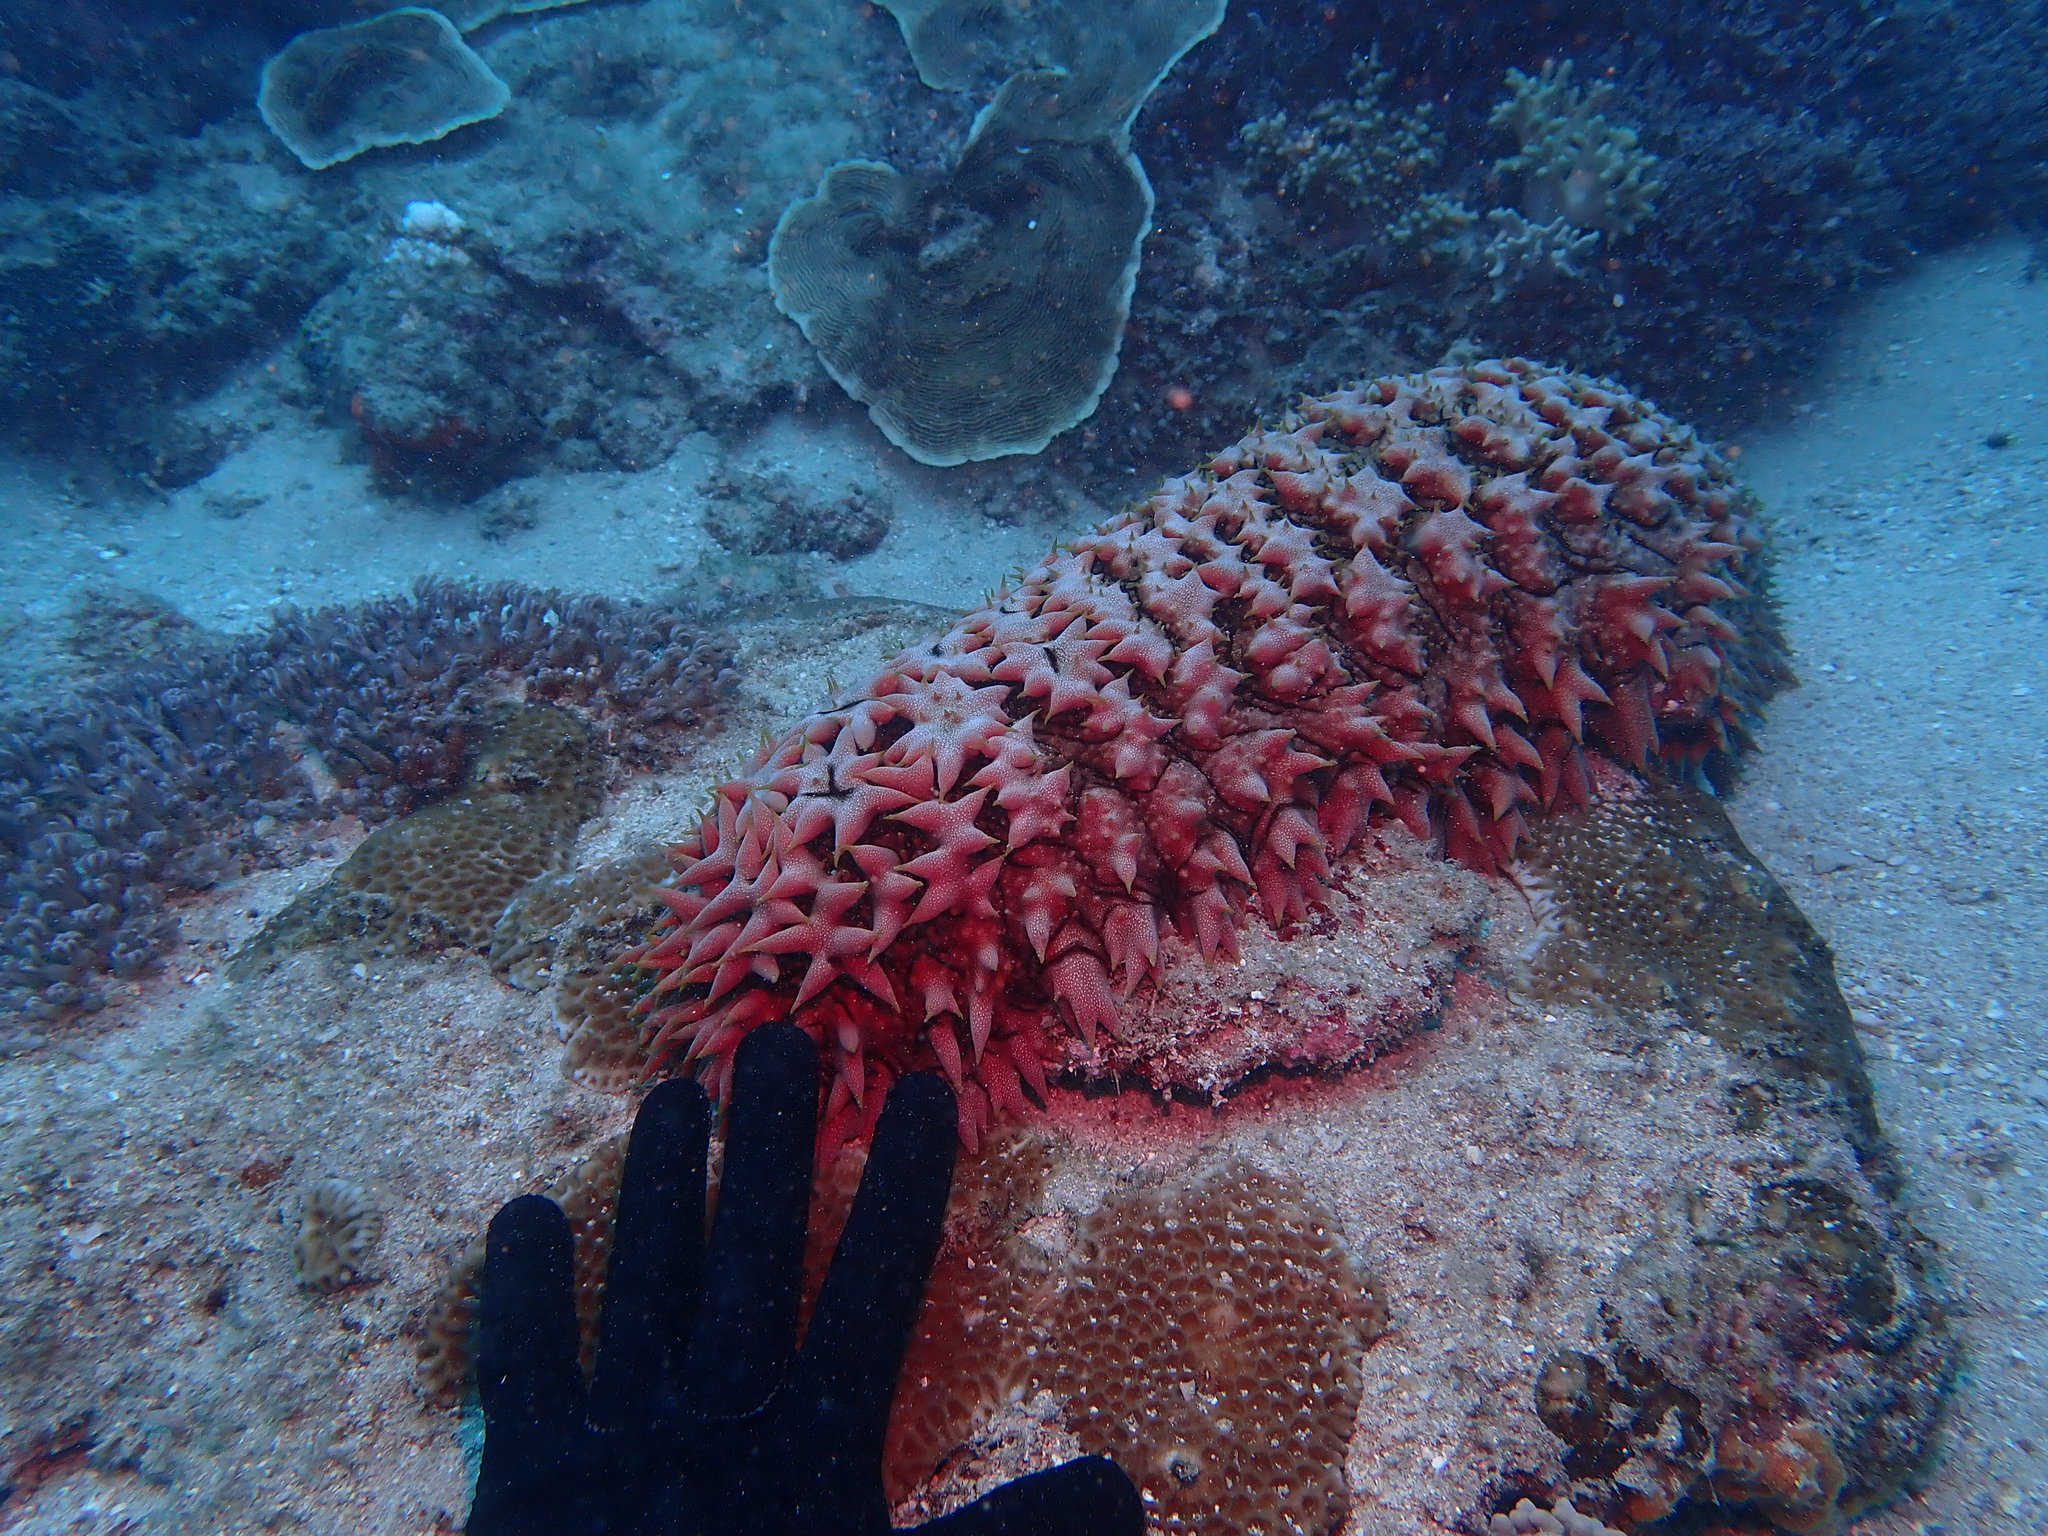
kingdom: Animalia
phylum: Echinodermata
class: Holothuroidea
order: Synallactida
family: Stichopodidae
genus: Thelenota
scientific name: Thelenota ananas
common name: Prickly redfish
